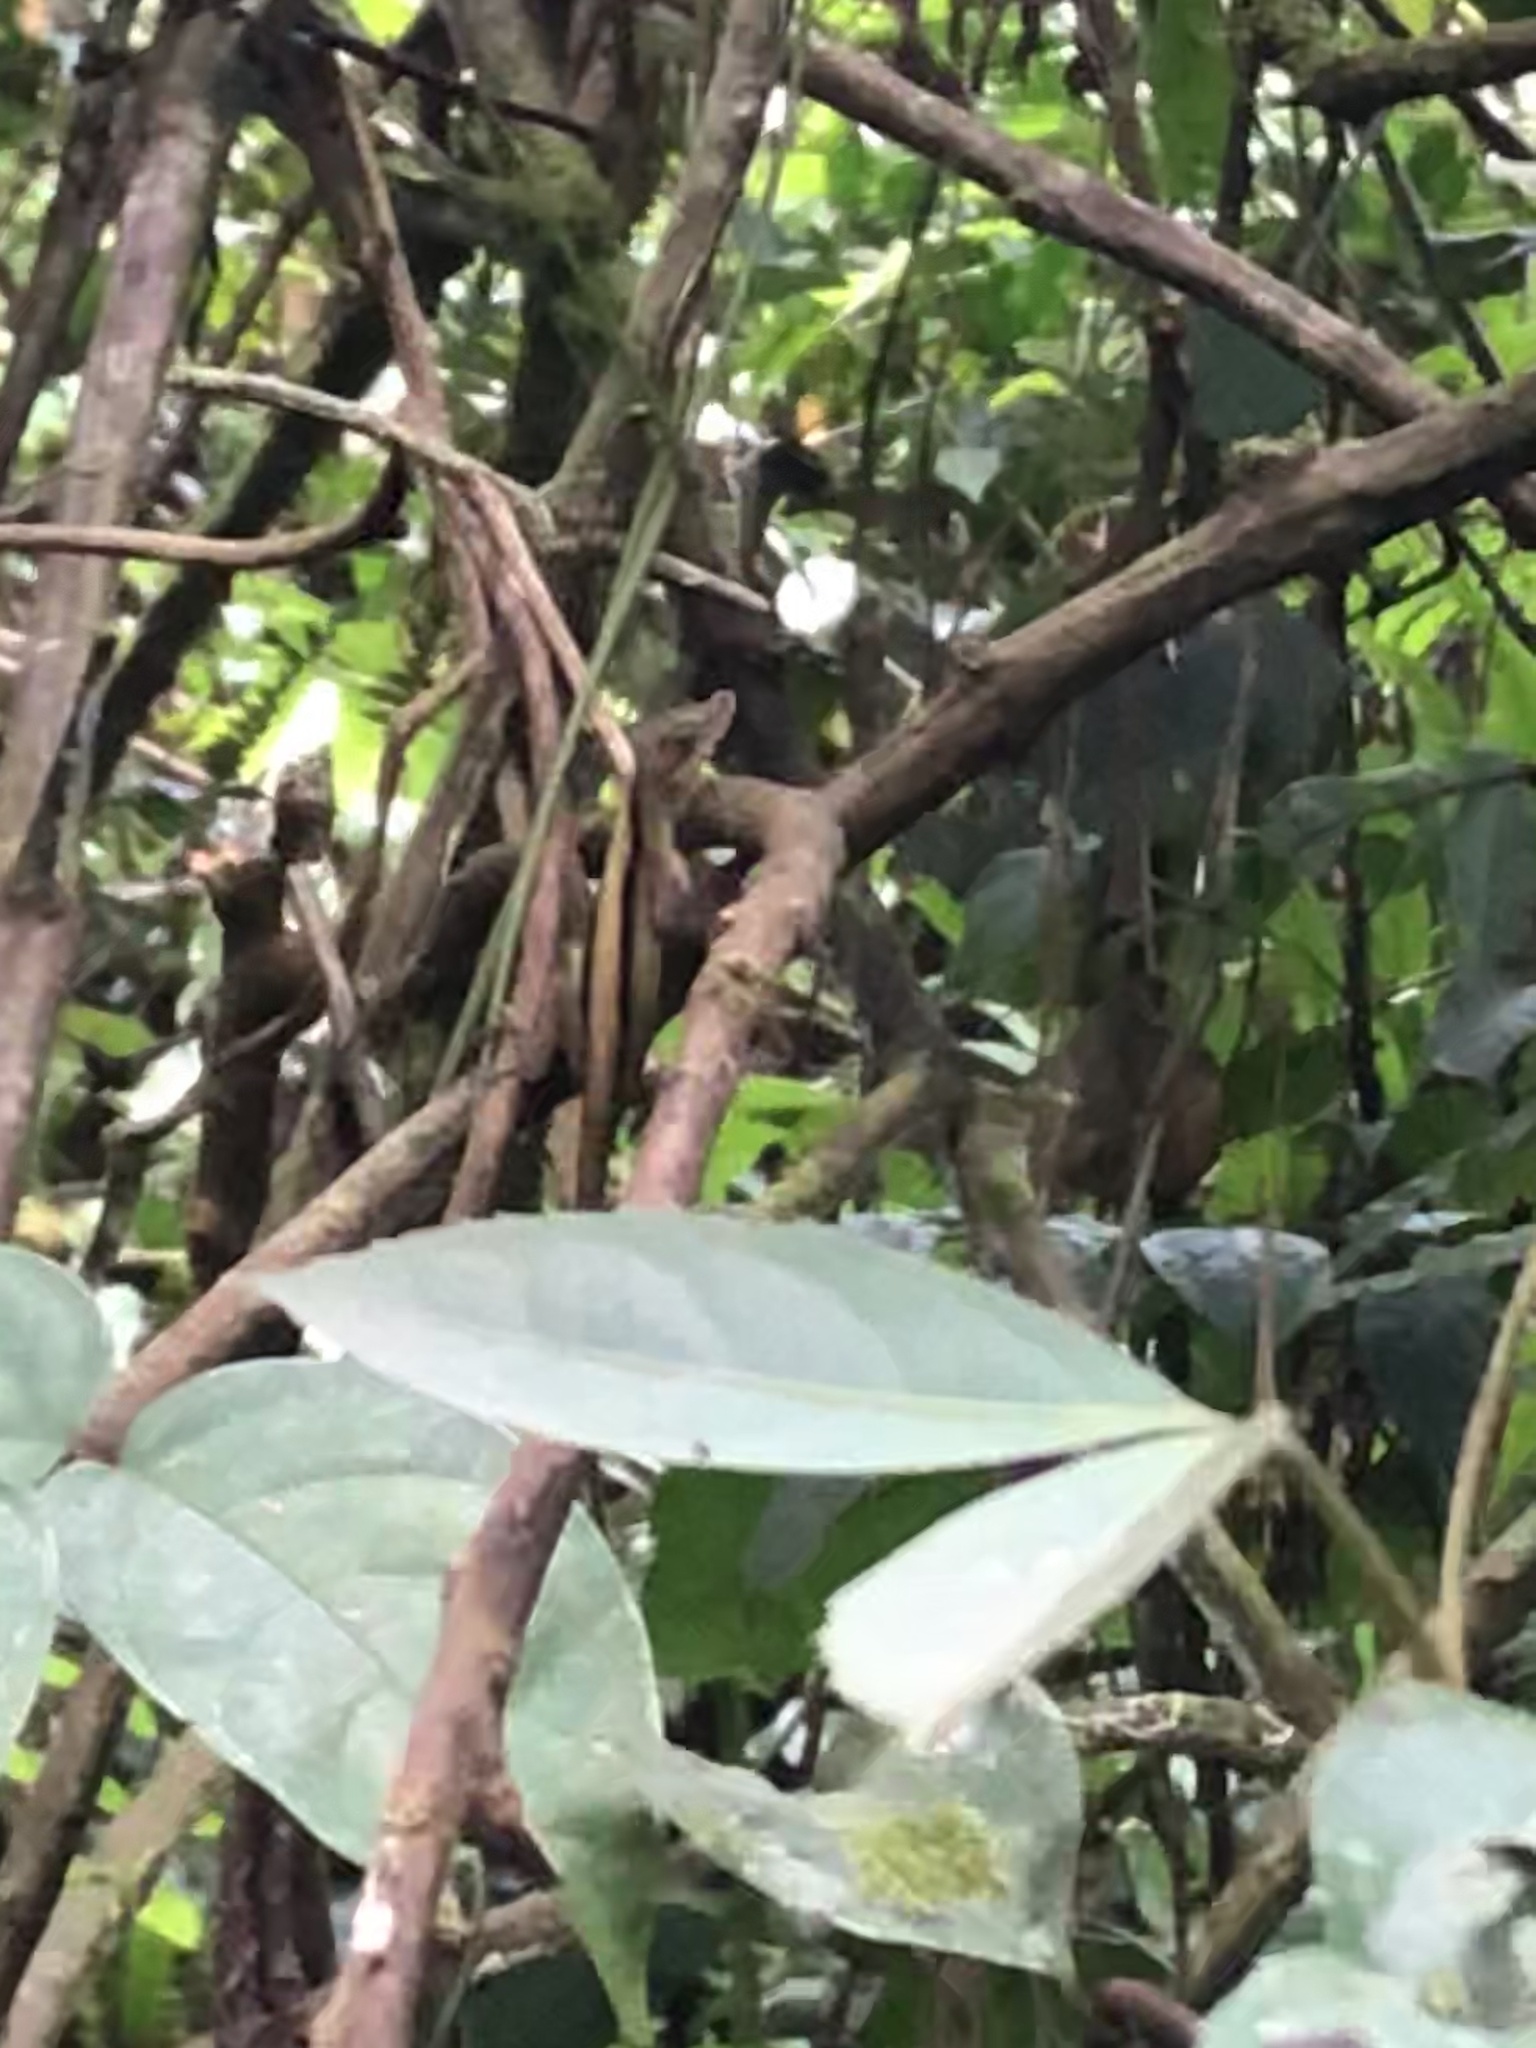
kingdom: Animalia
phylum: Chordata
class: Squamata
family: Dactyloidae
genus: Anolis
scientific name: Anolis fuscoauratus
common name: Brown-eared anole
